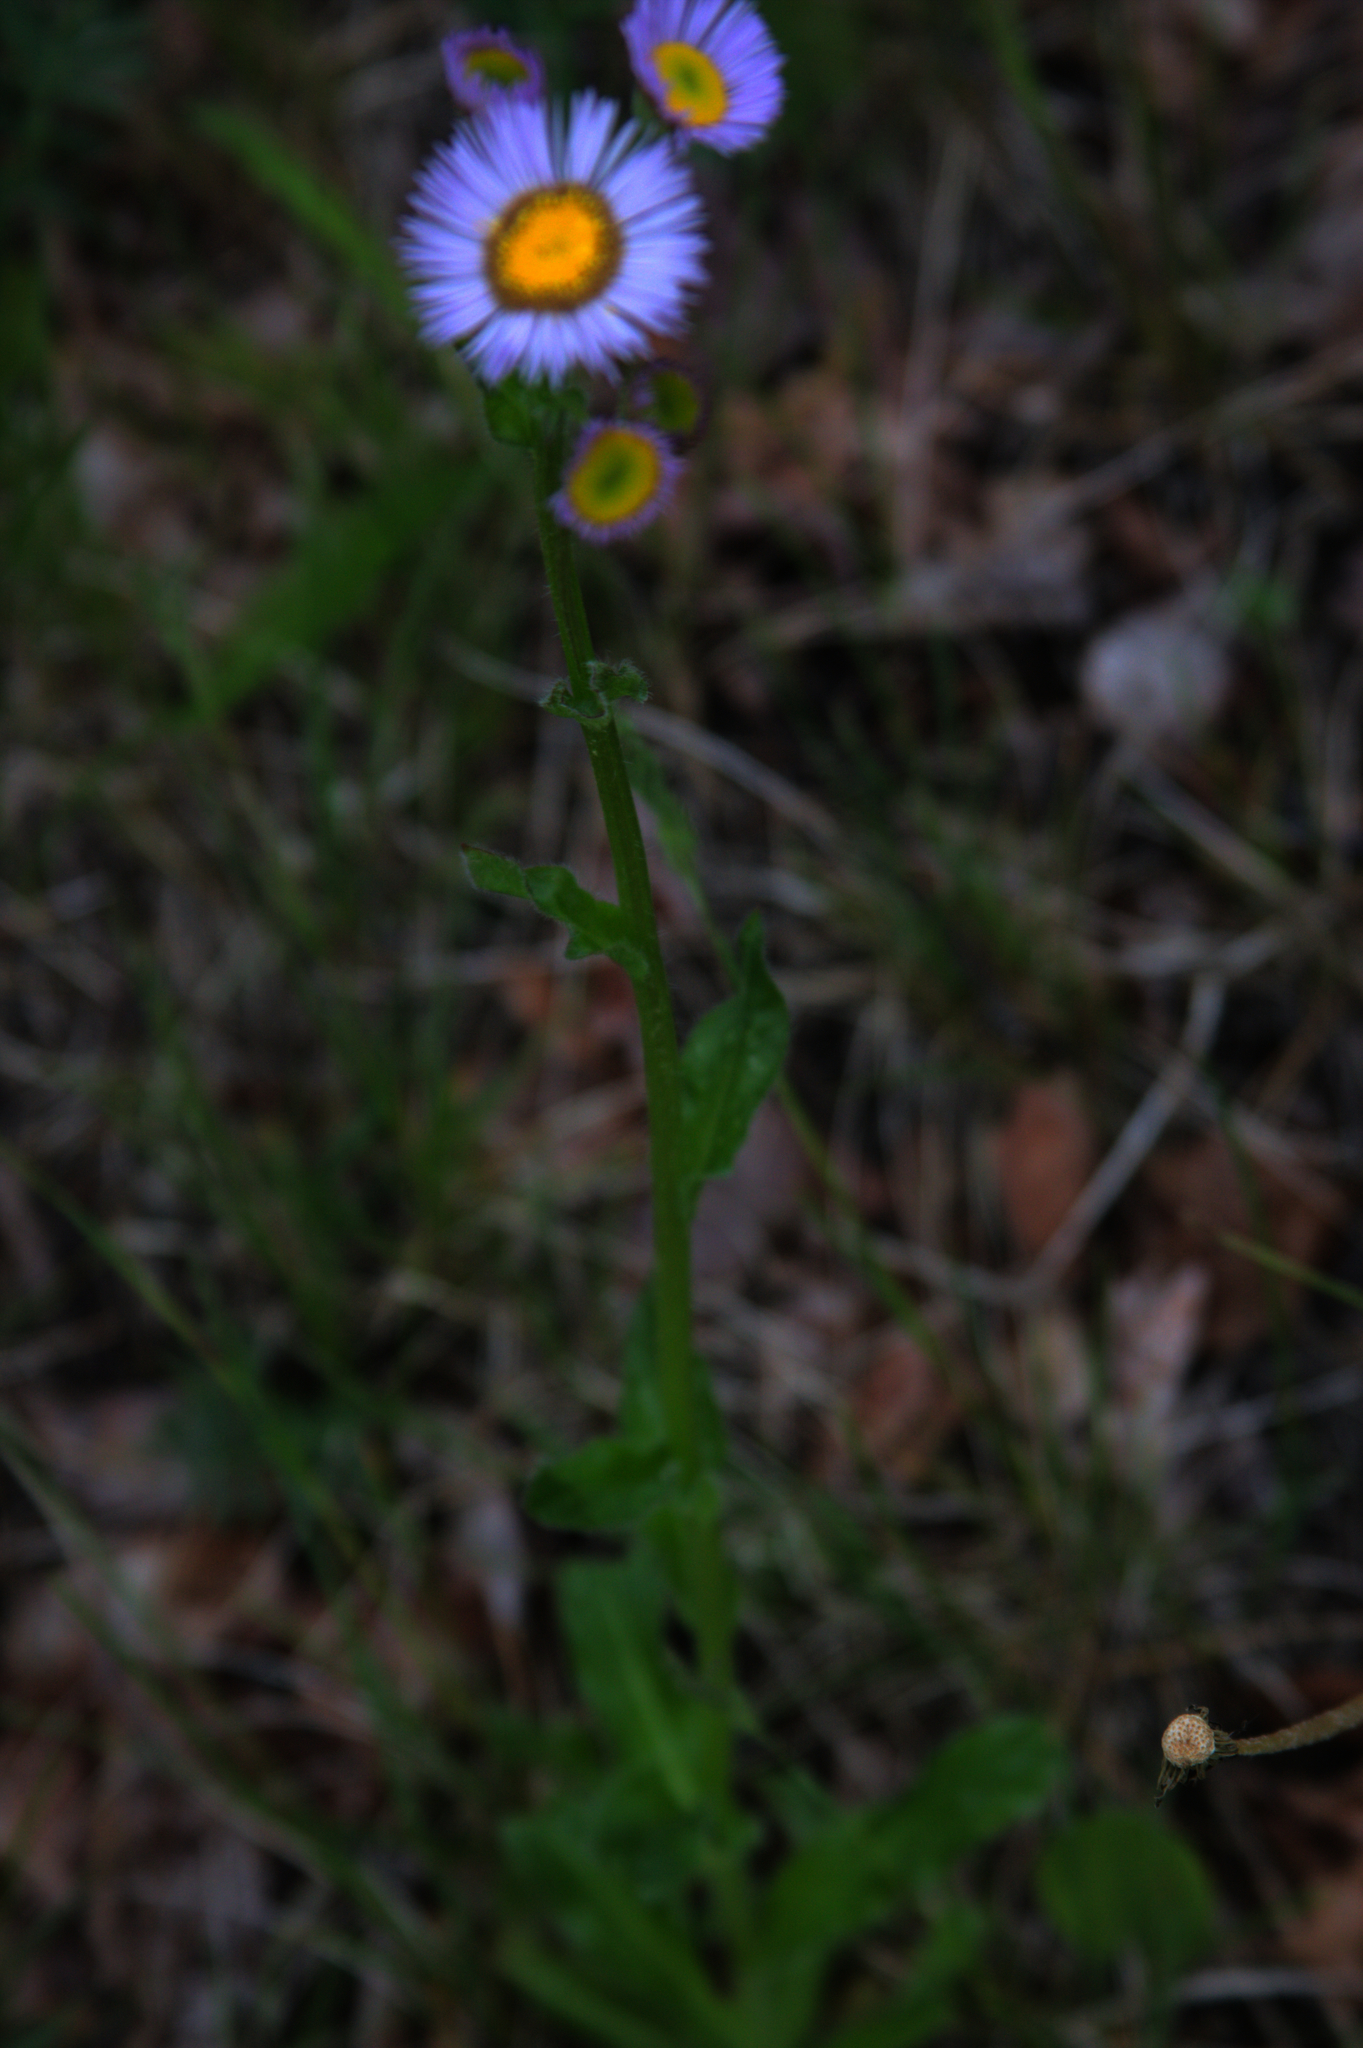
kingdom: Plantae
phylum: Tracheophyta
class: Magnoliopsida
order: Asterales
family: Asteraceae
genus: Erigeron
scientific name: Erigeron pulchellus
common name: Hairy fleabane
